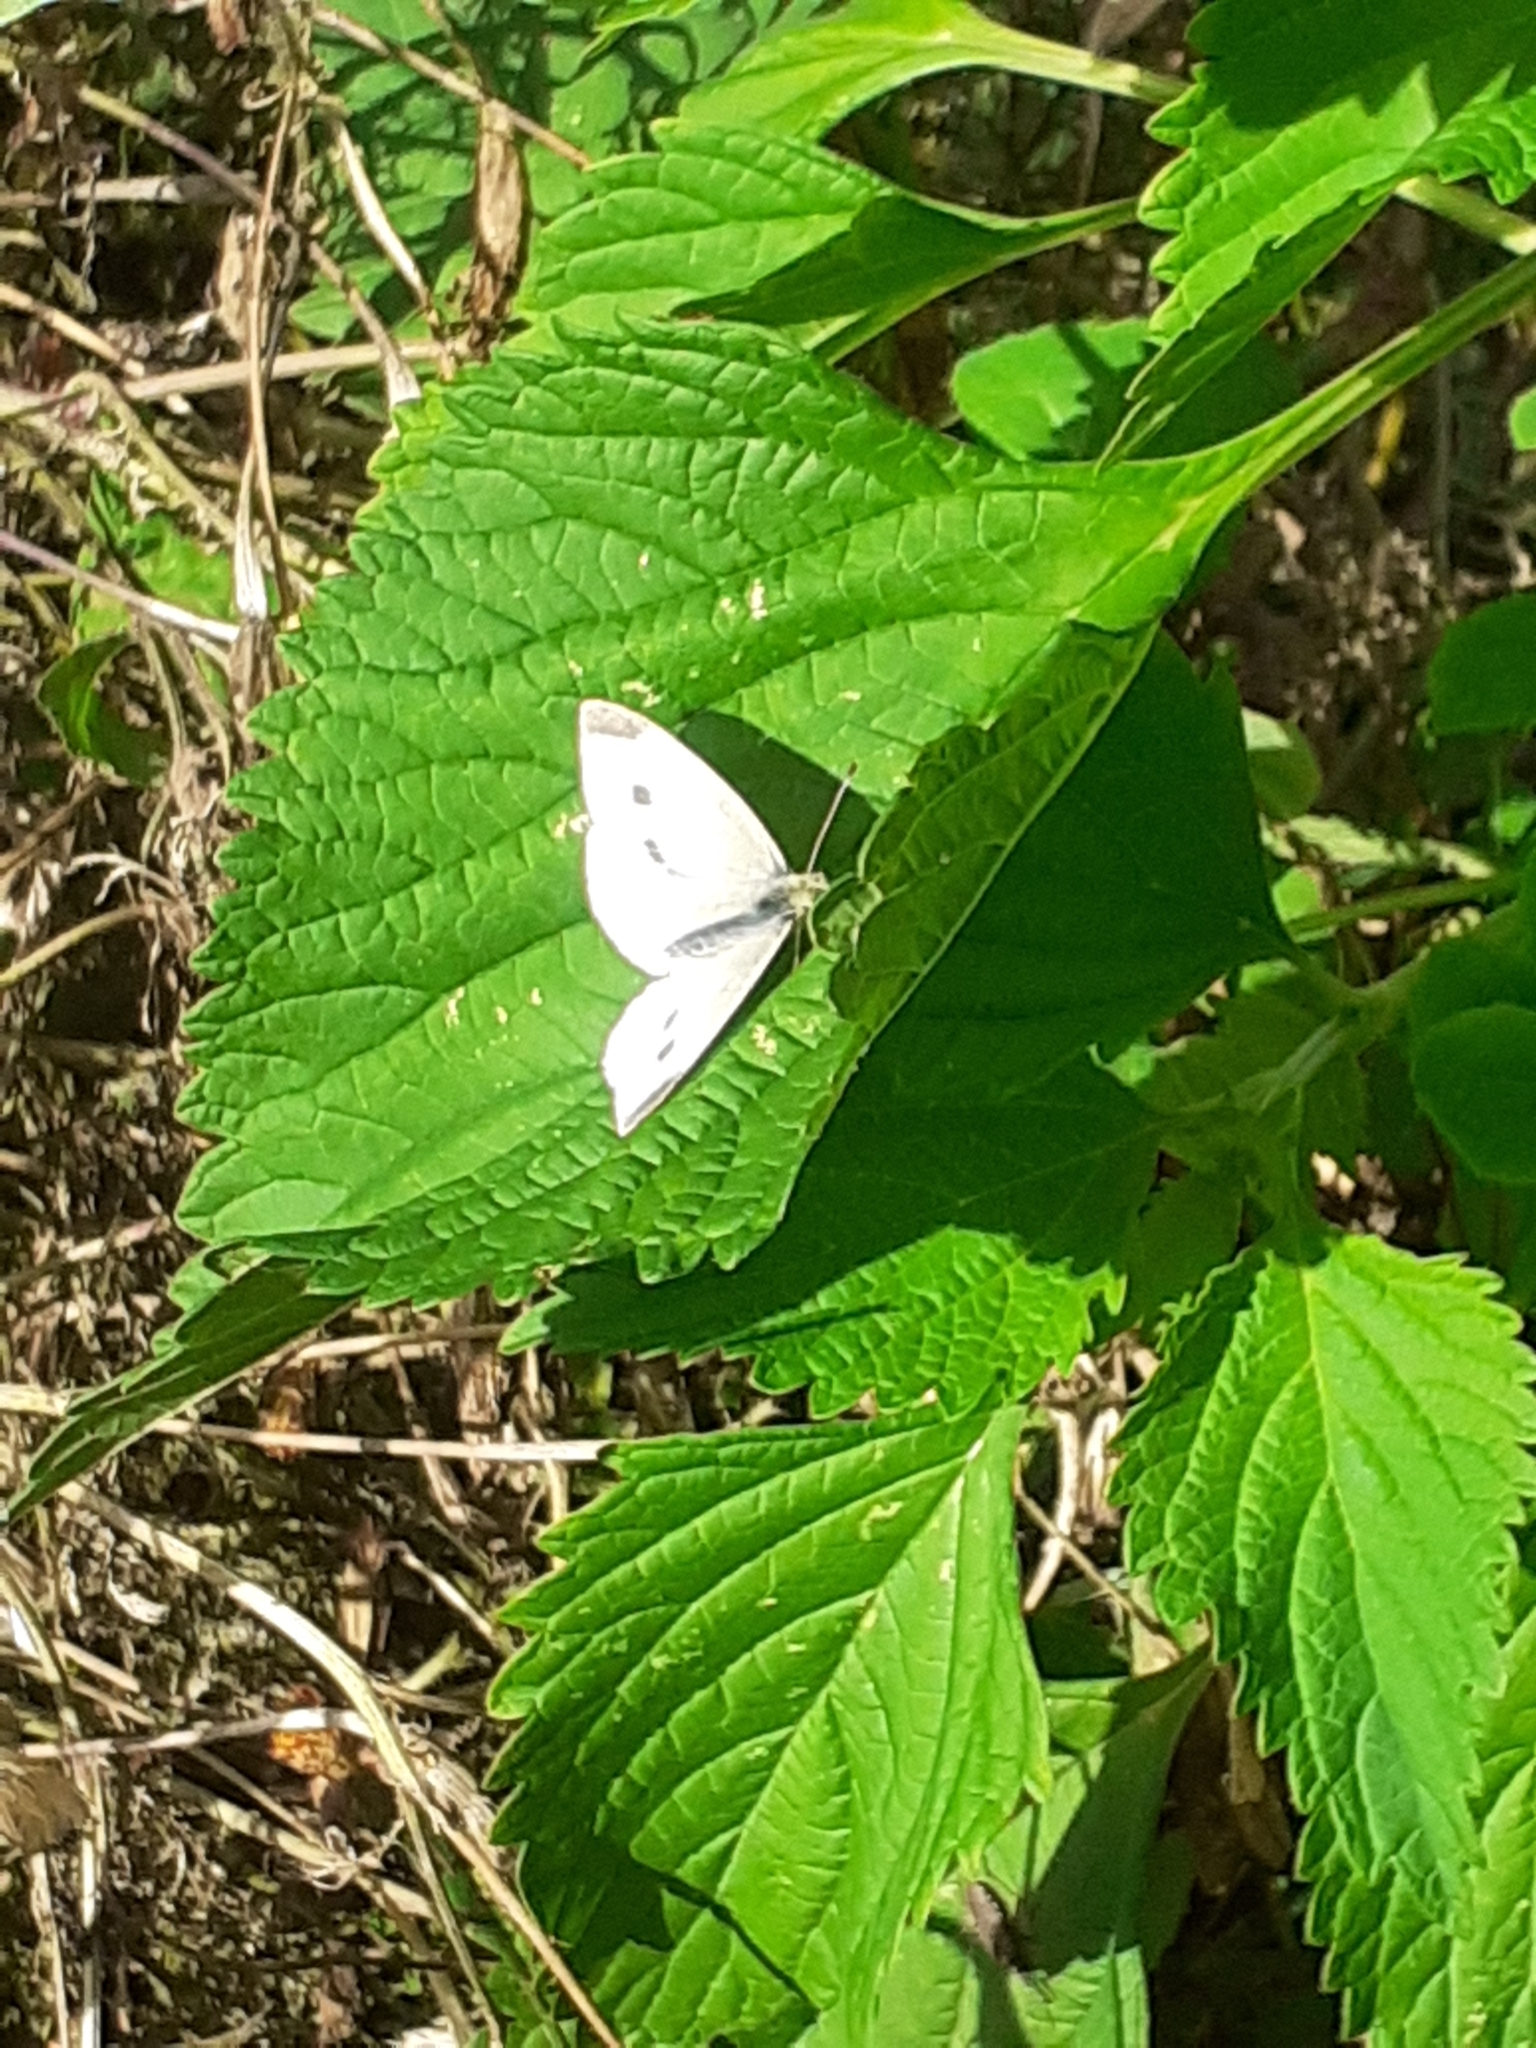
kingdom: Animalia
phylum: Arthropoda
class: Insecta
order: Lepidoptera
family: Pieridae
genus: Pieris
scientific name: Pieris rapae
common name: Small white
